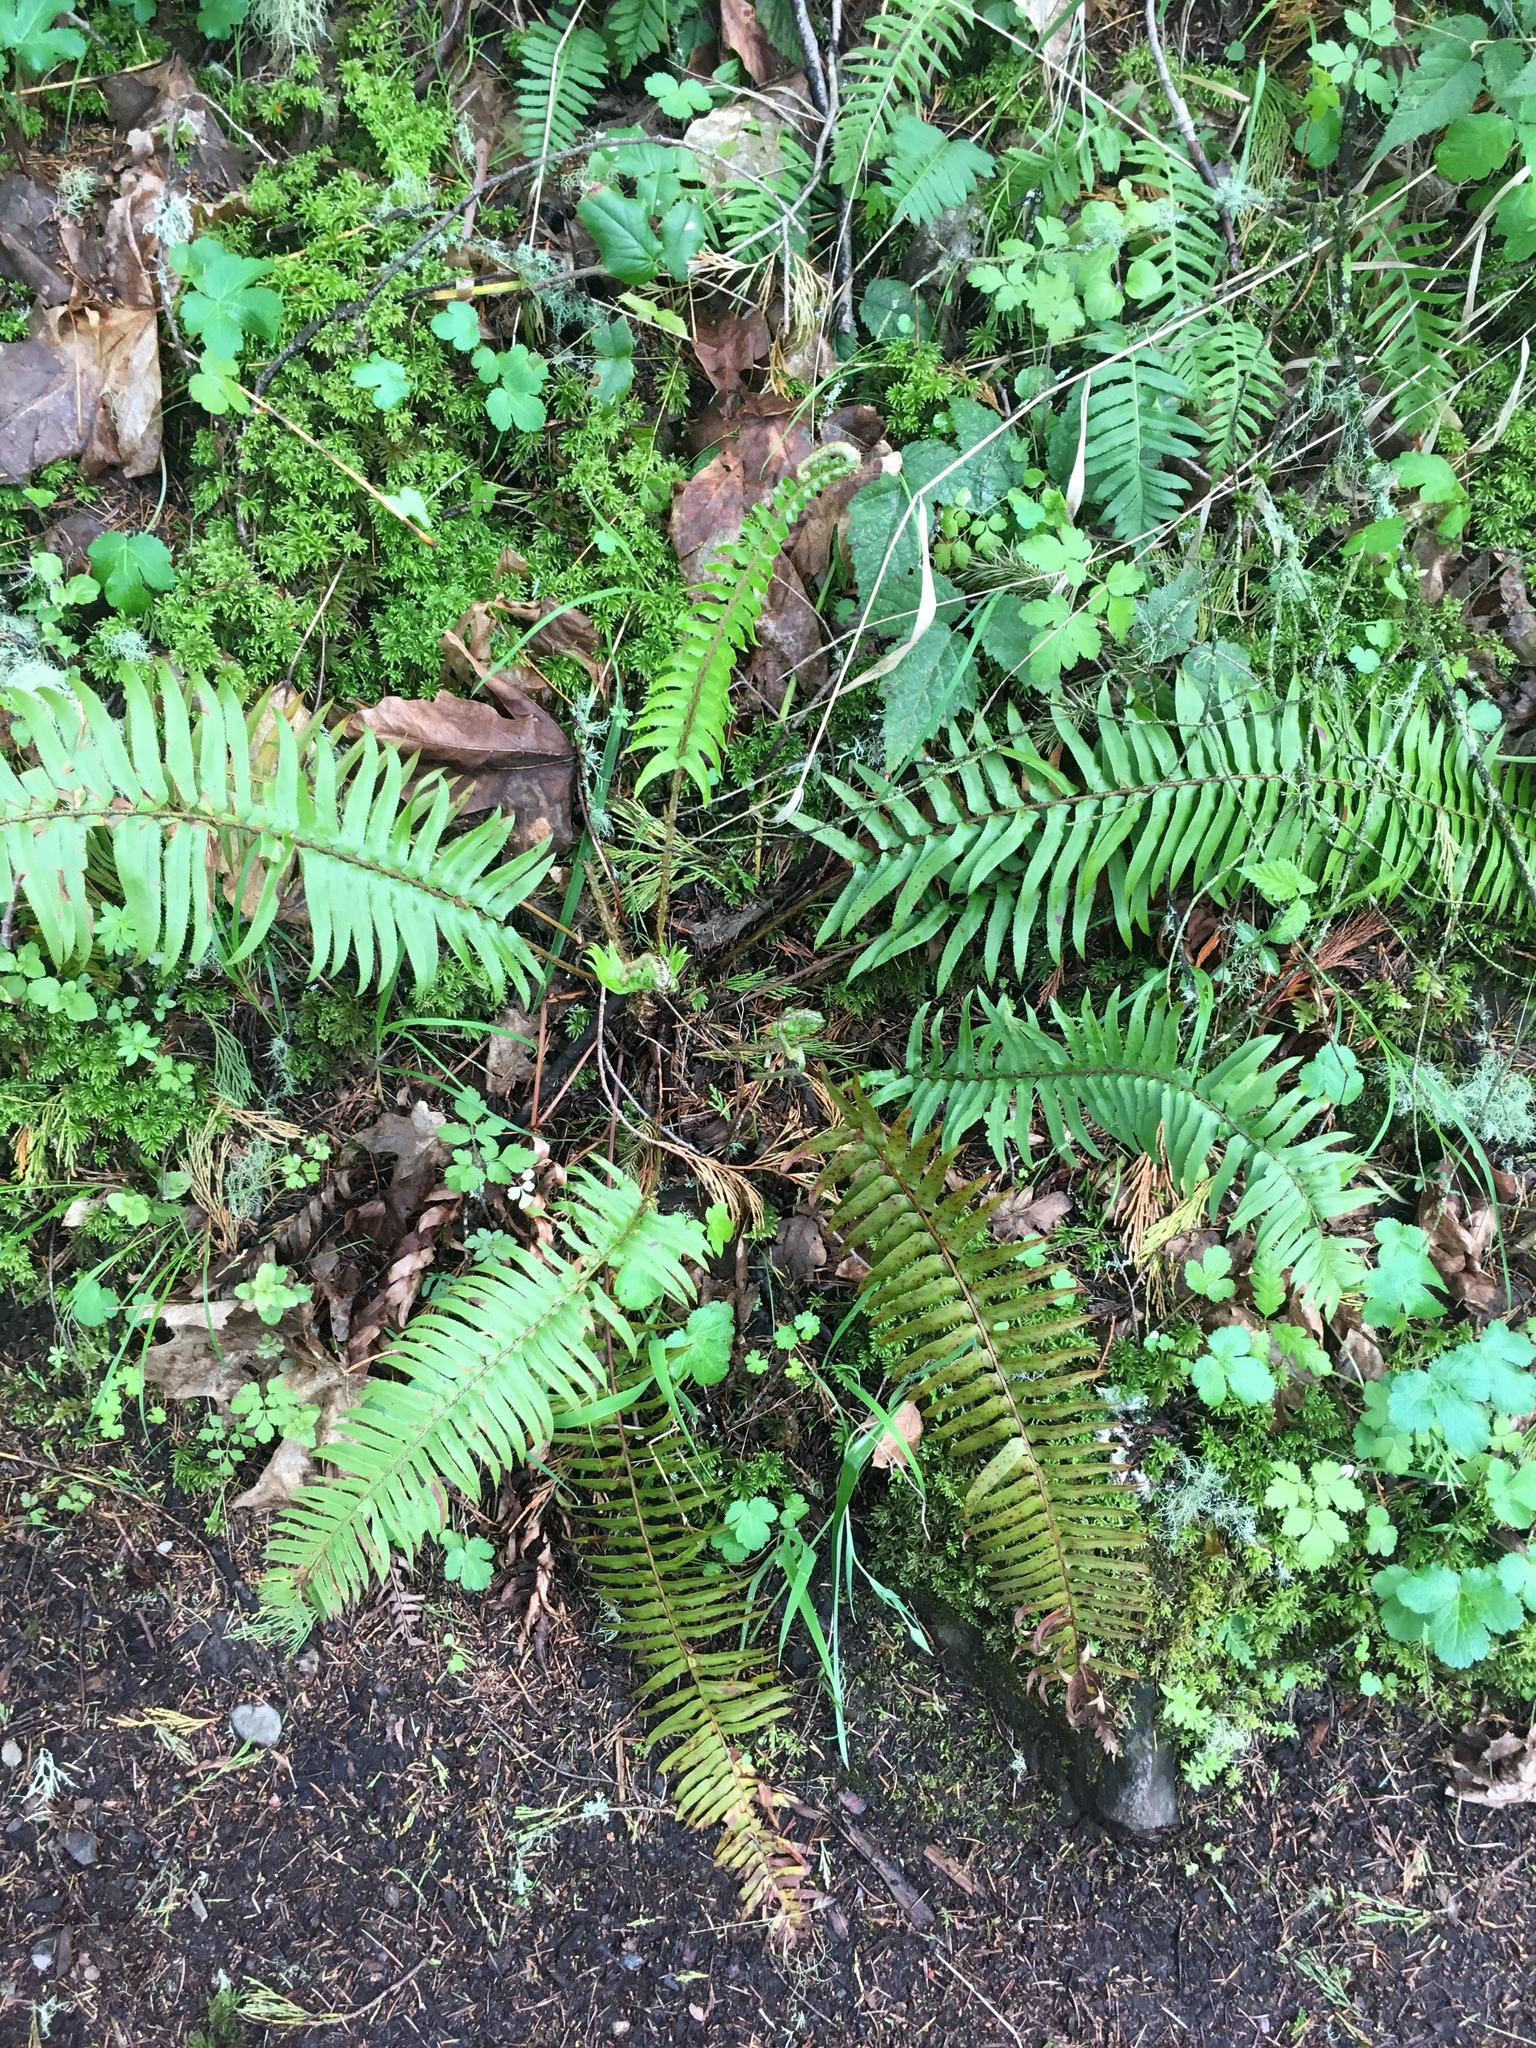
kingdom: Plantae
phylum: Tracheophyta
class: Polypodiopsida
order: Polypodiales
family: Dryopteridaceae
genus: Polystichum
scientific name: Polystichum munitum
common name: Western sword-fern
